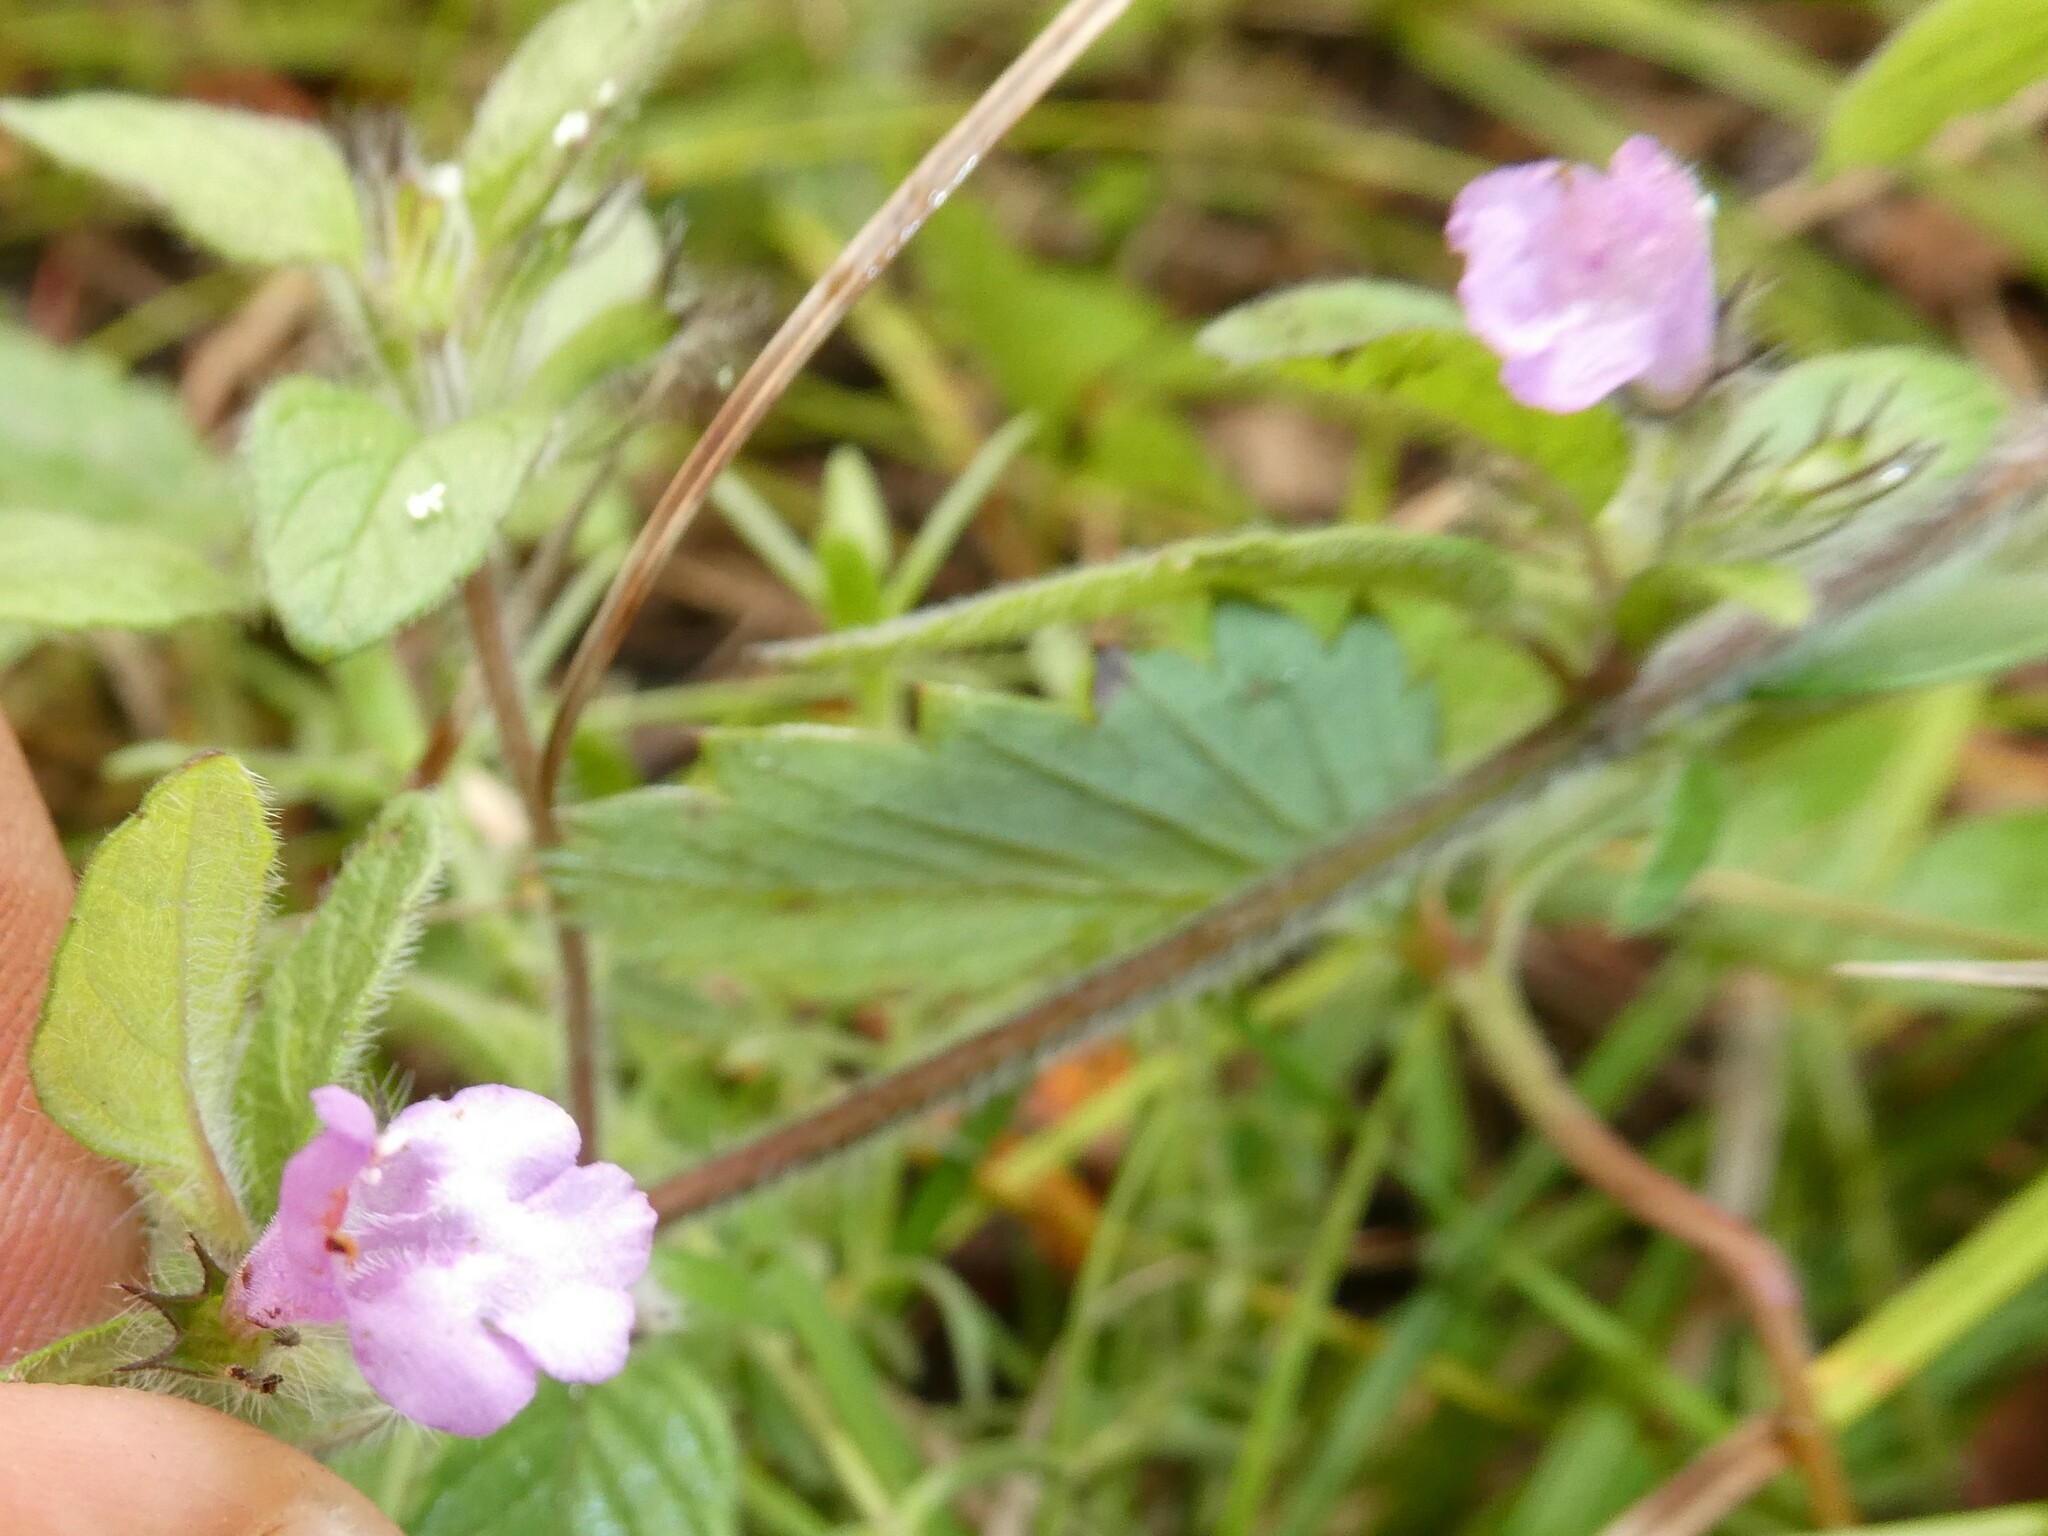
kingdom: Plantae
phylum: Tracheophyta
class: Magnoliopsida
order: Lamiales
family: Lamiaceae
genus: Clinopodium
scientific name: Clinopodium vulgare
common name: Wild basil
